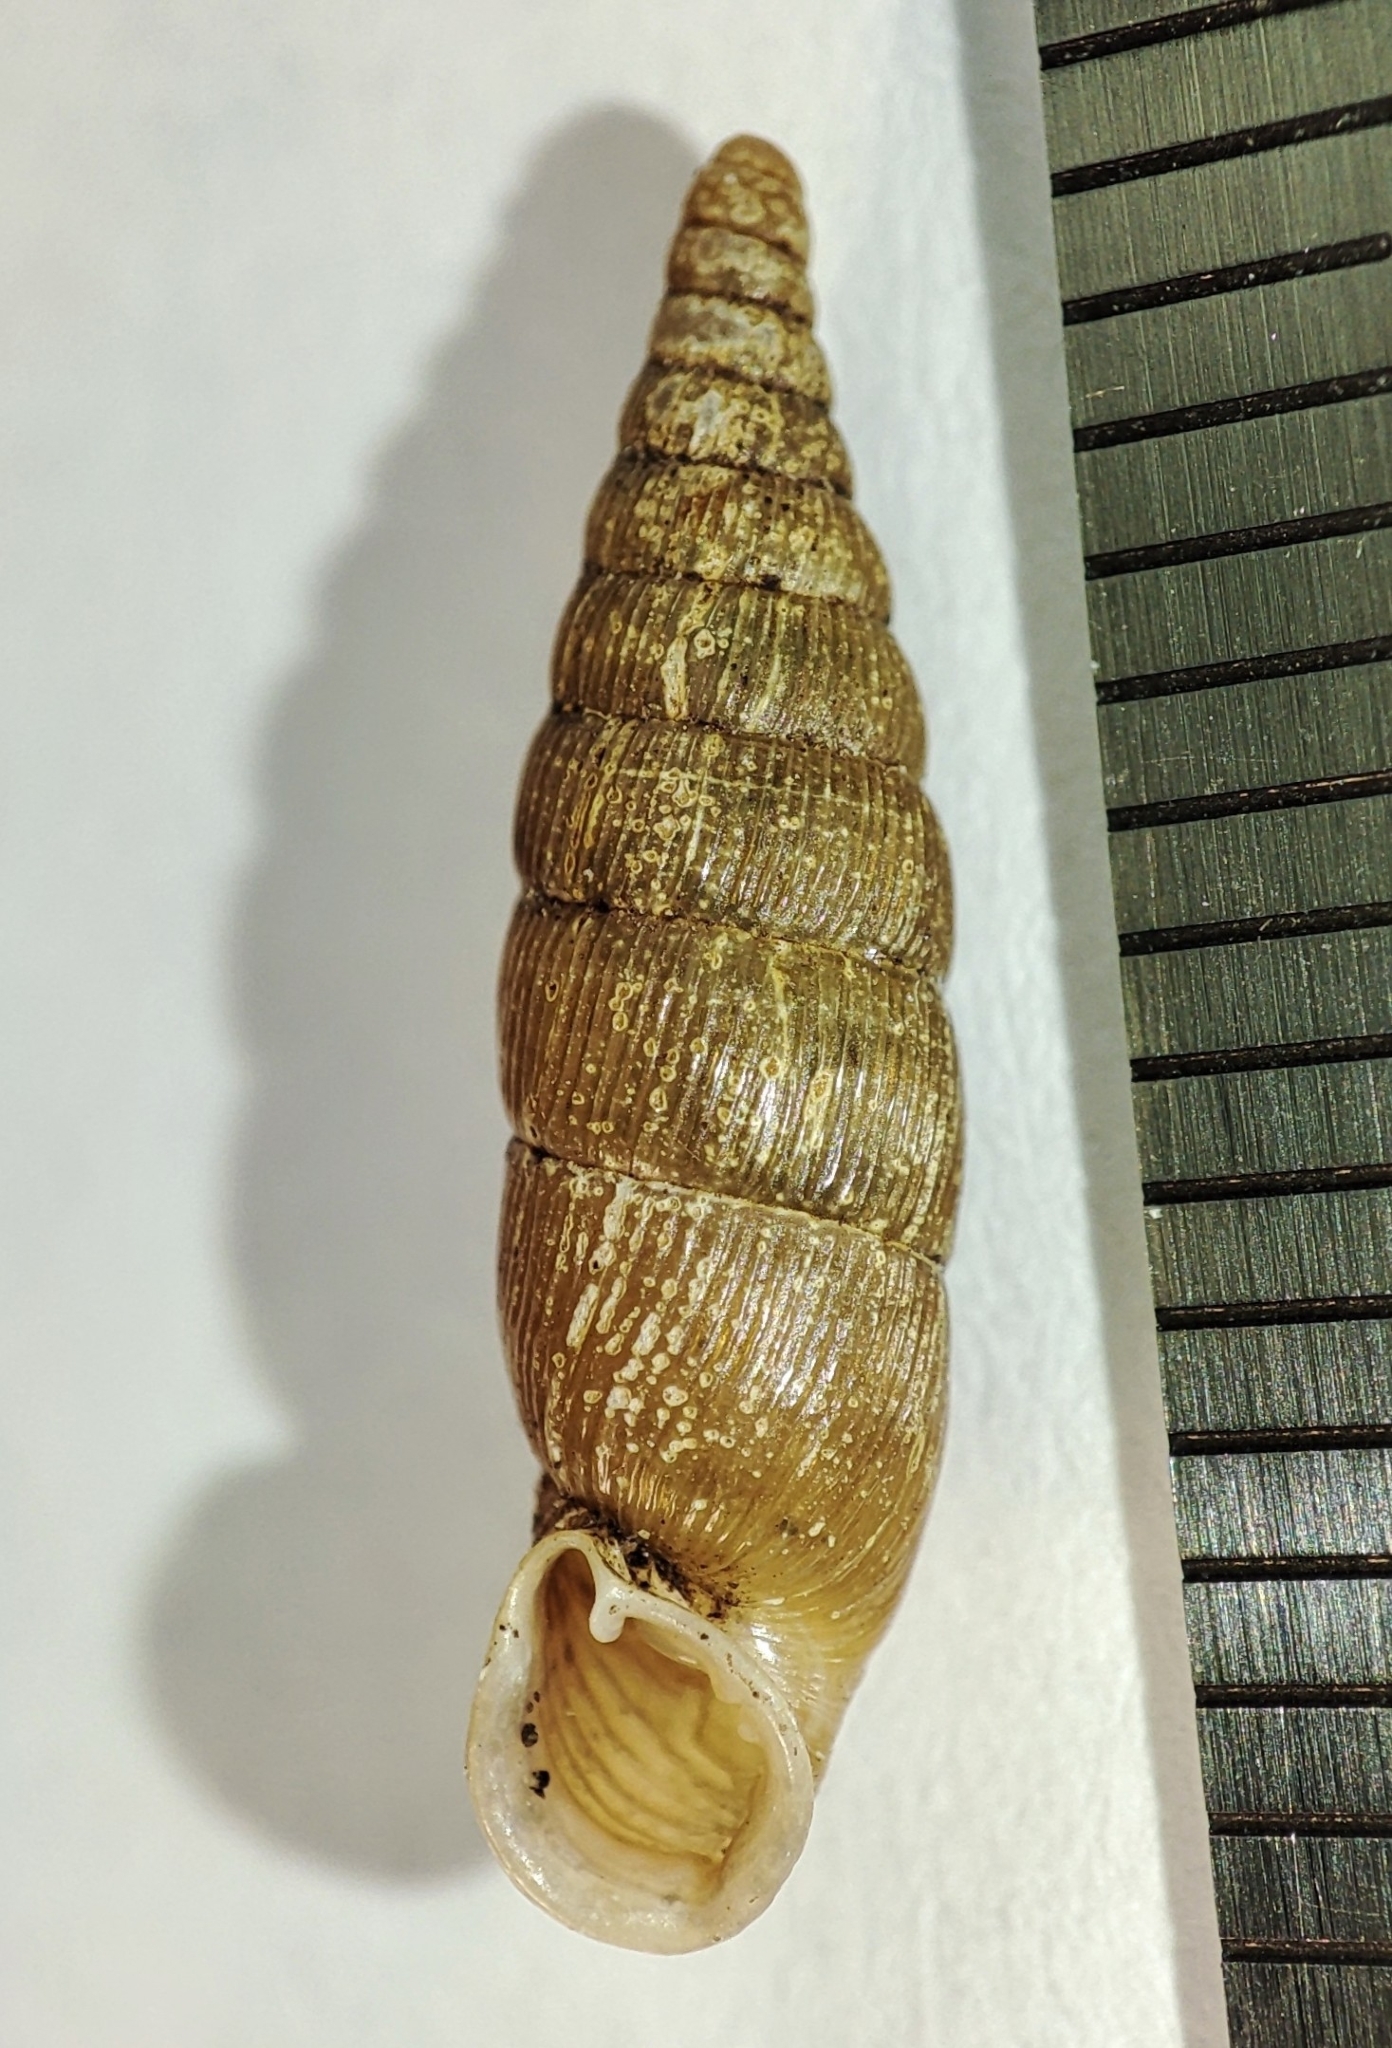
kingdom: Animalia
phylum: Mollusca
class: Gastropoda
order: Stylommatophora
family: Clausiliidae
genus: Vestia
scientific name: Vestia turgida
